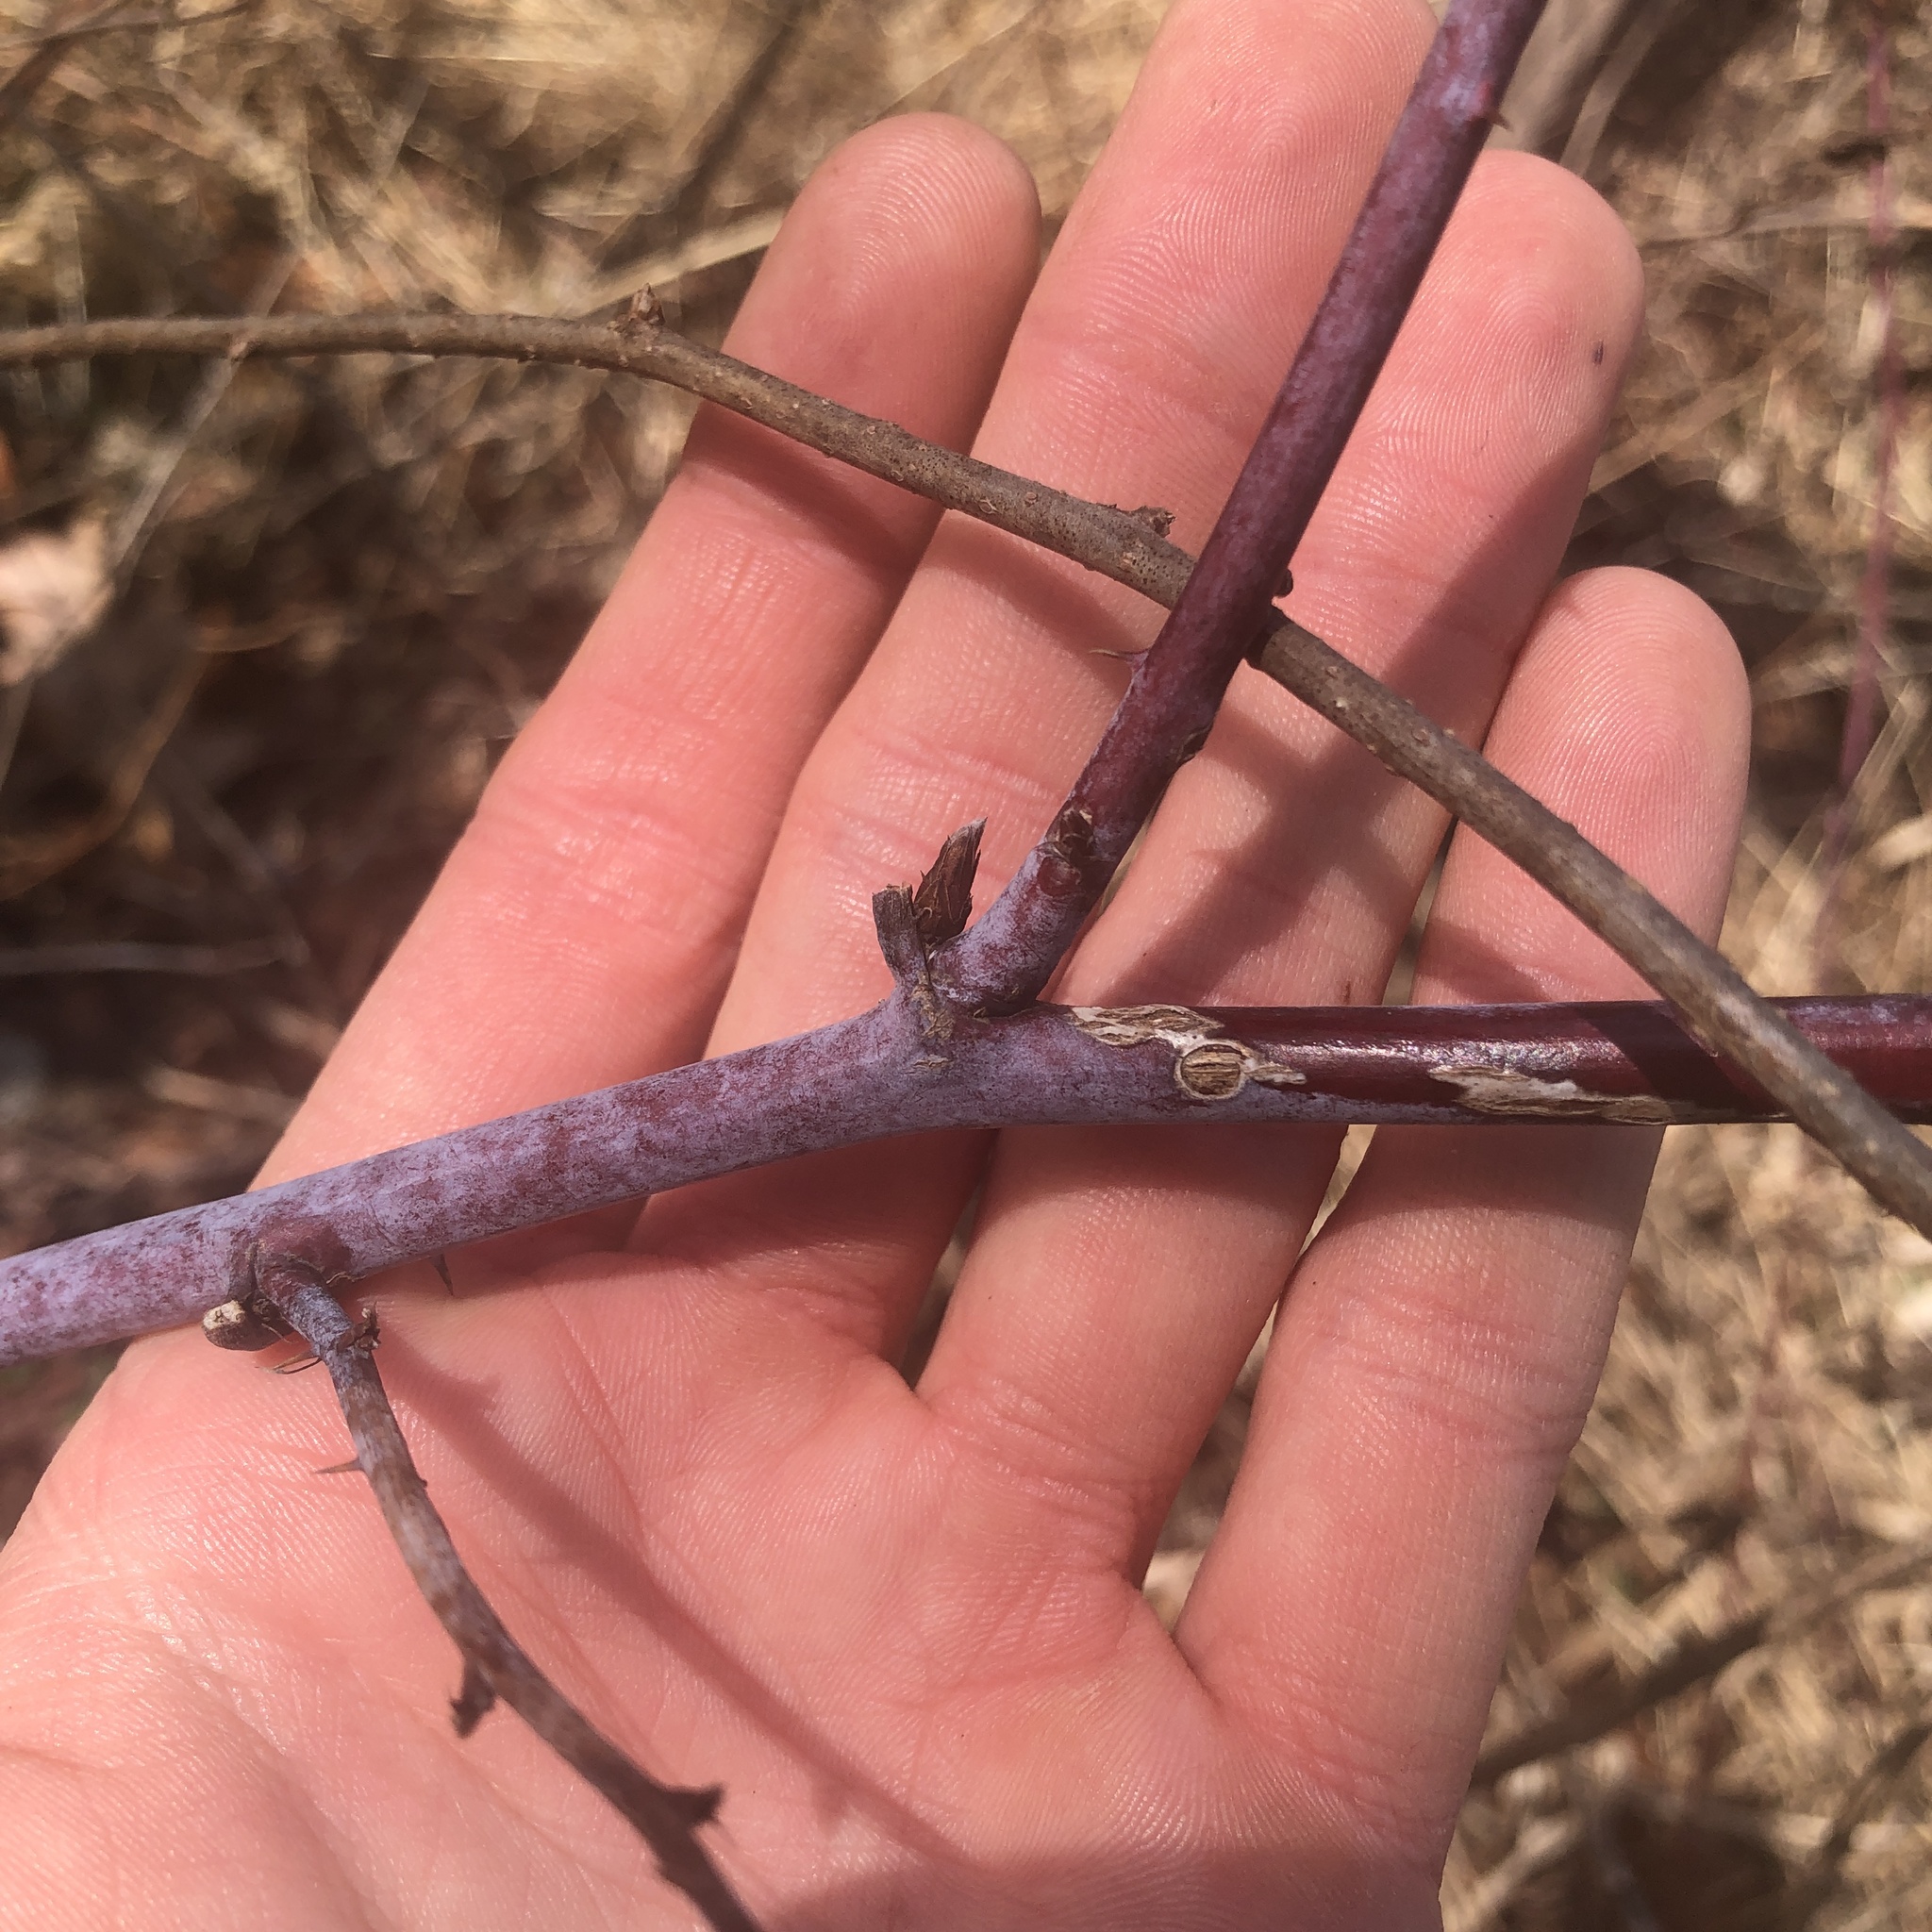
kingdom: Plantae
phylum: Tracheophyta
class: Magnoliopsida
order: Rosales
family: Rosaceae
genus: Rubus
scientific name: Rubus occidentalis
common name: Black raspberry
